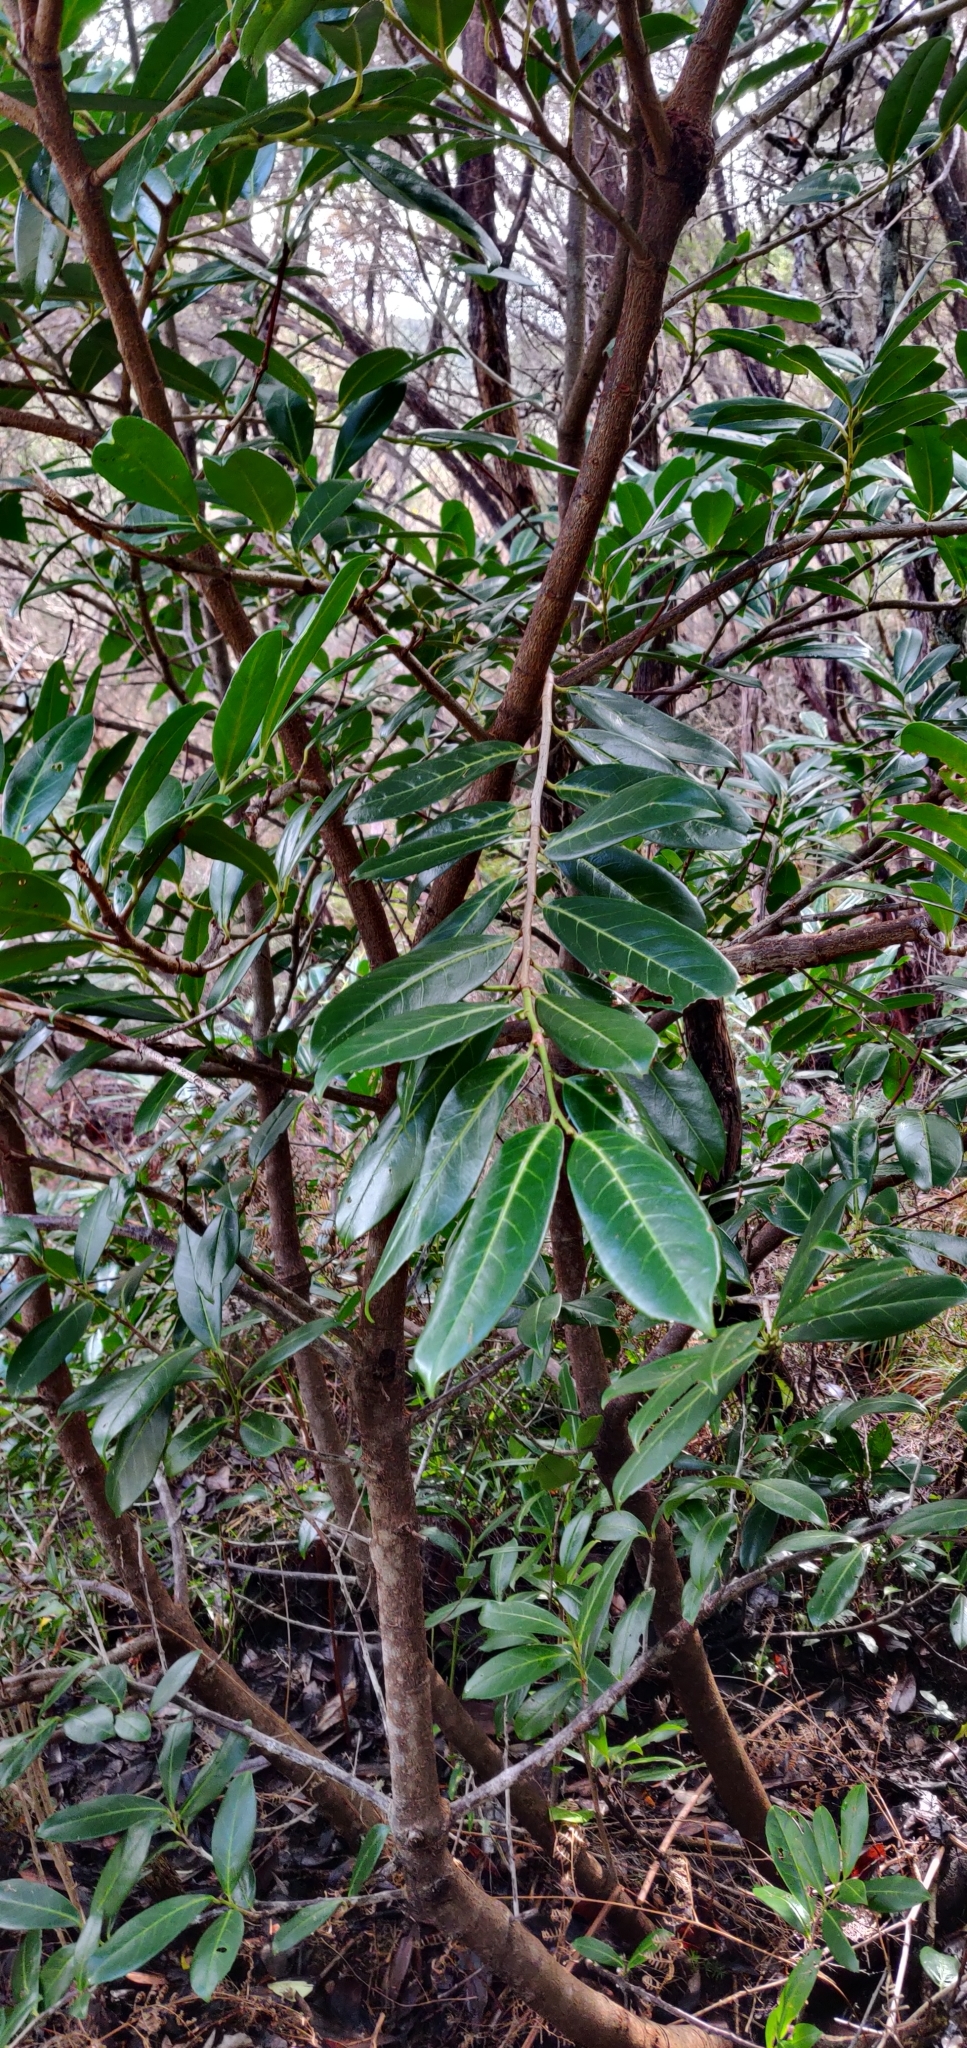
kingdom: Plantae
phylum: Tracheophyta
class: Magnoliopsida
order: Rosales
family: Rosaceae
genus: Prunus
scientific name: Prunus laurocerasus
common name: Cherry laurel
